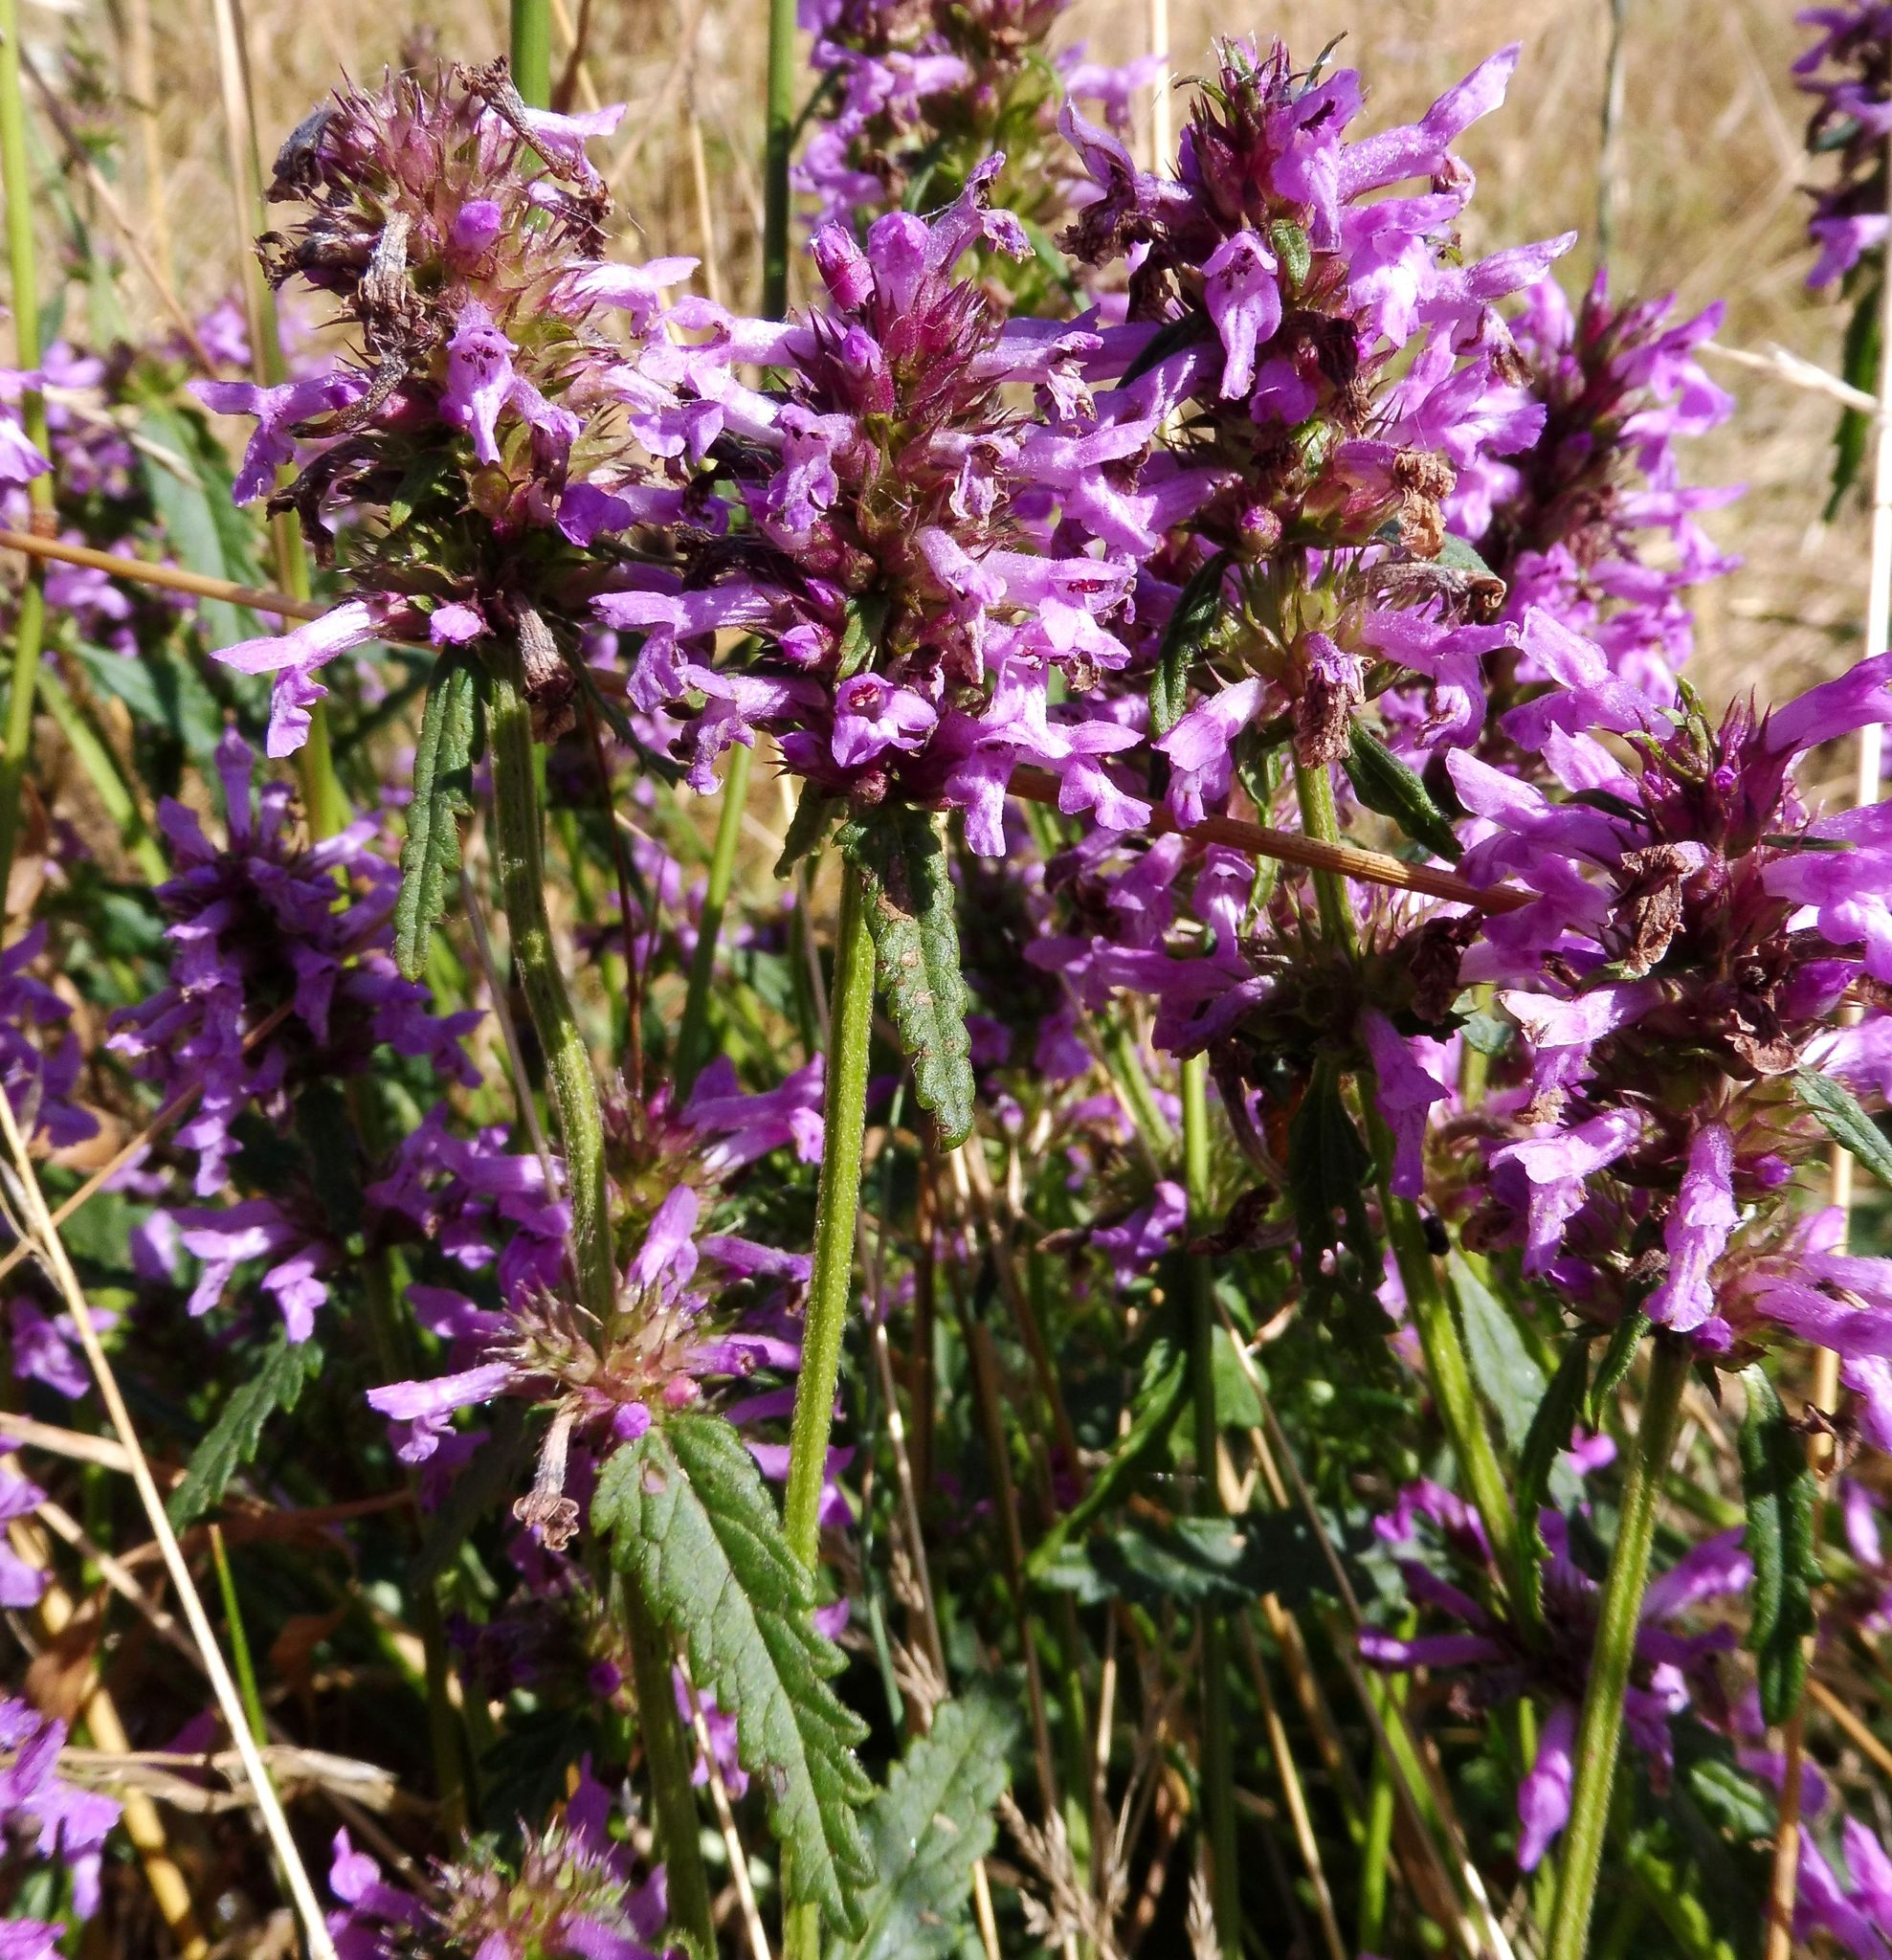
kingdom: Plantae
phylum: Tracheophyta
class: Magnoliopsida
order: Lamiales
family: Lamiaceae
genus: Betonica
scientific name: Betonica officinalis
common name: Bishop's-wort
